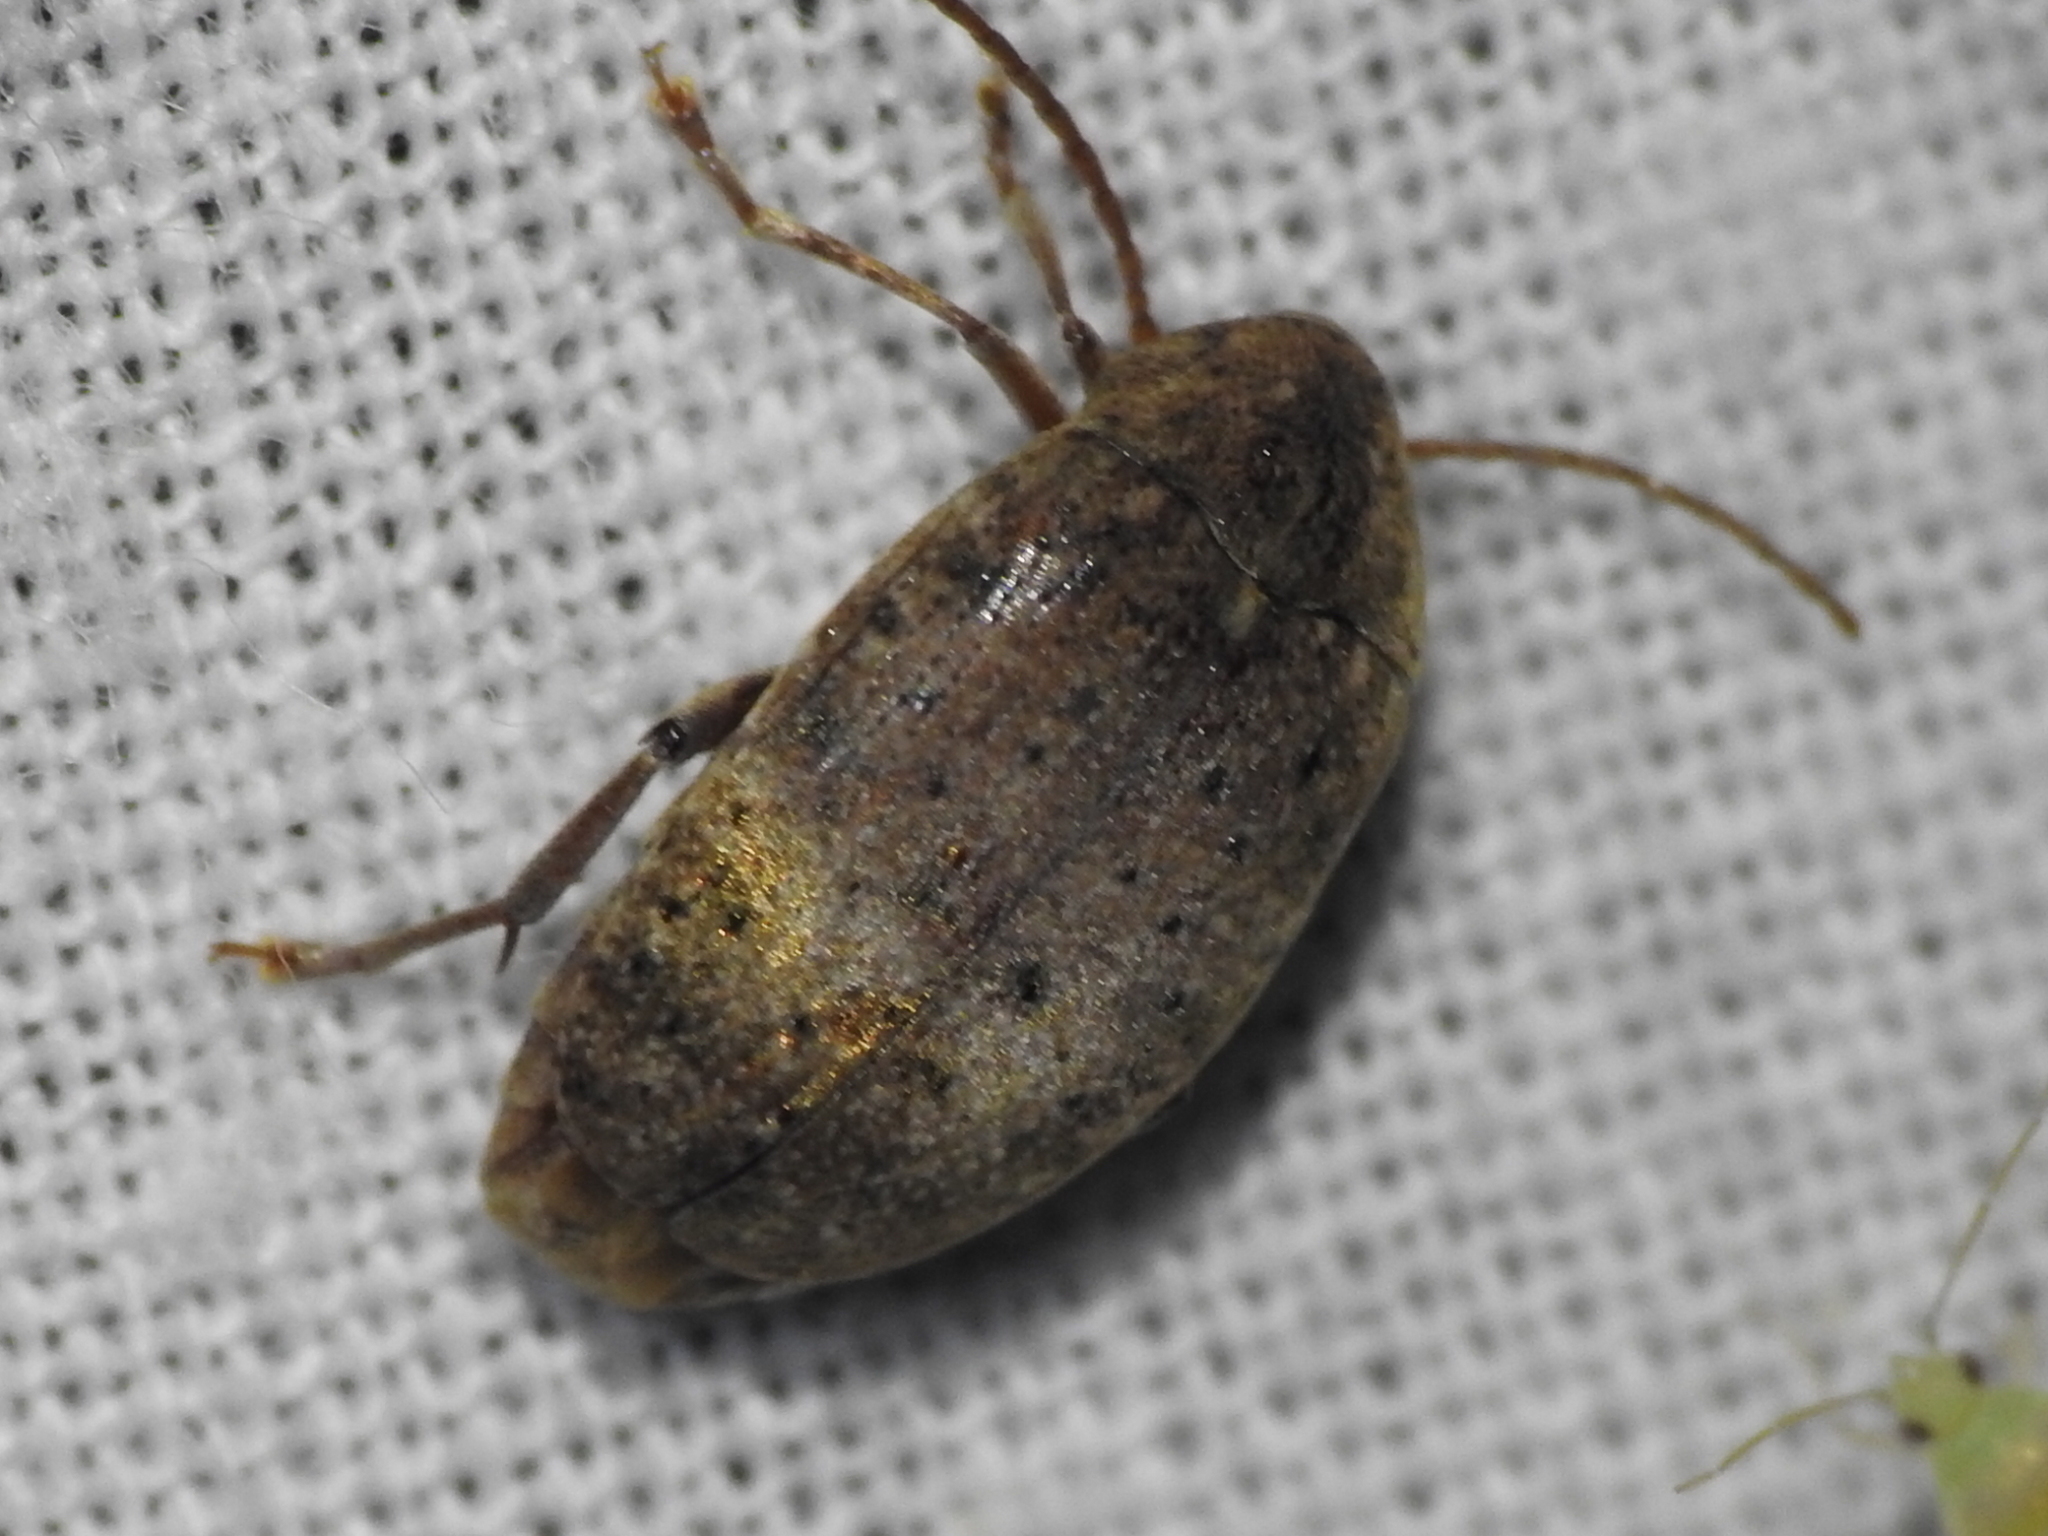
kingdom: Animalia
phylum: Arthropoda
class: Insecta
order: Coleoptera
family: Chrysomelidae
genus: Amblycerus
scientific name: Amblycerus robiniae
